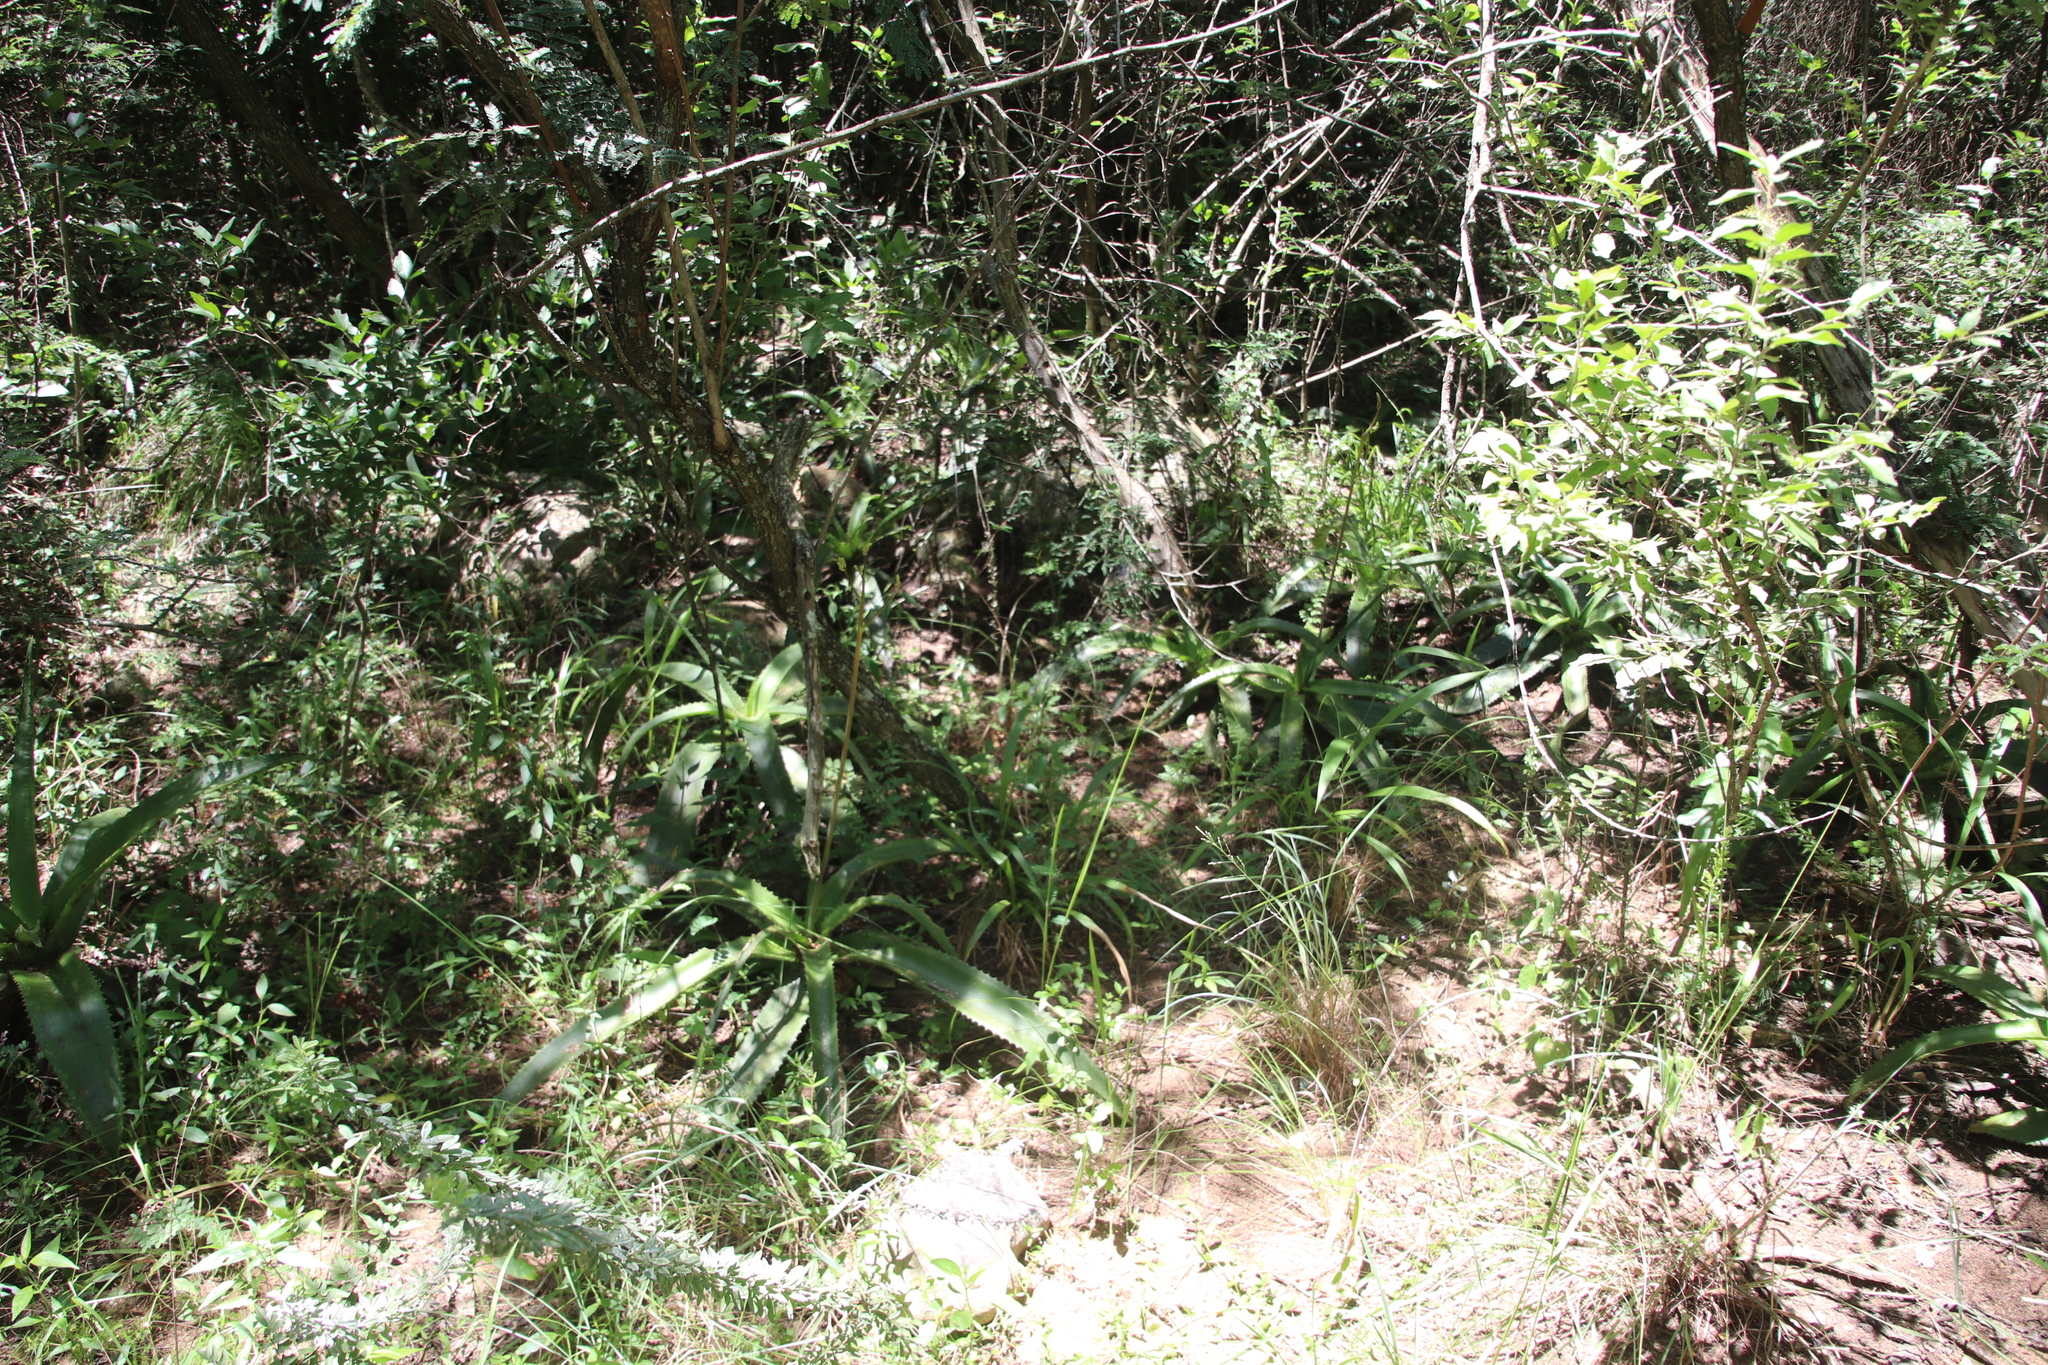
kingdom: Plantae
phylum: Tracheophyta
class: Liliopsida
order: Liliales
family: Smilacaceae
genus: Smilax
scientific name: Smilax anceps
